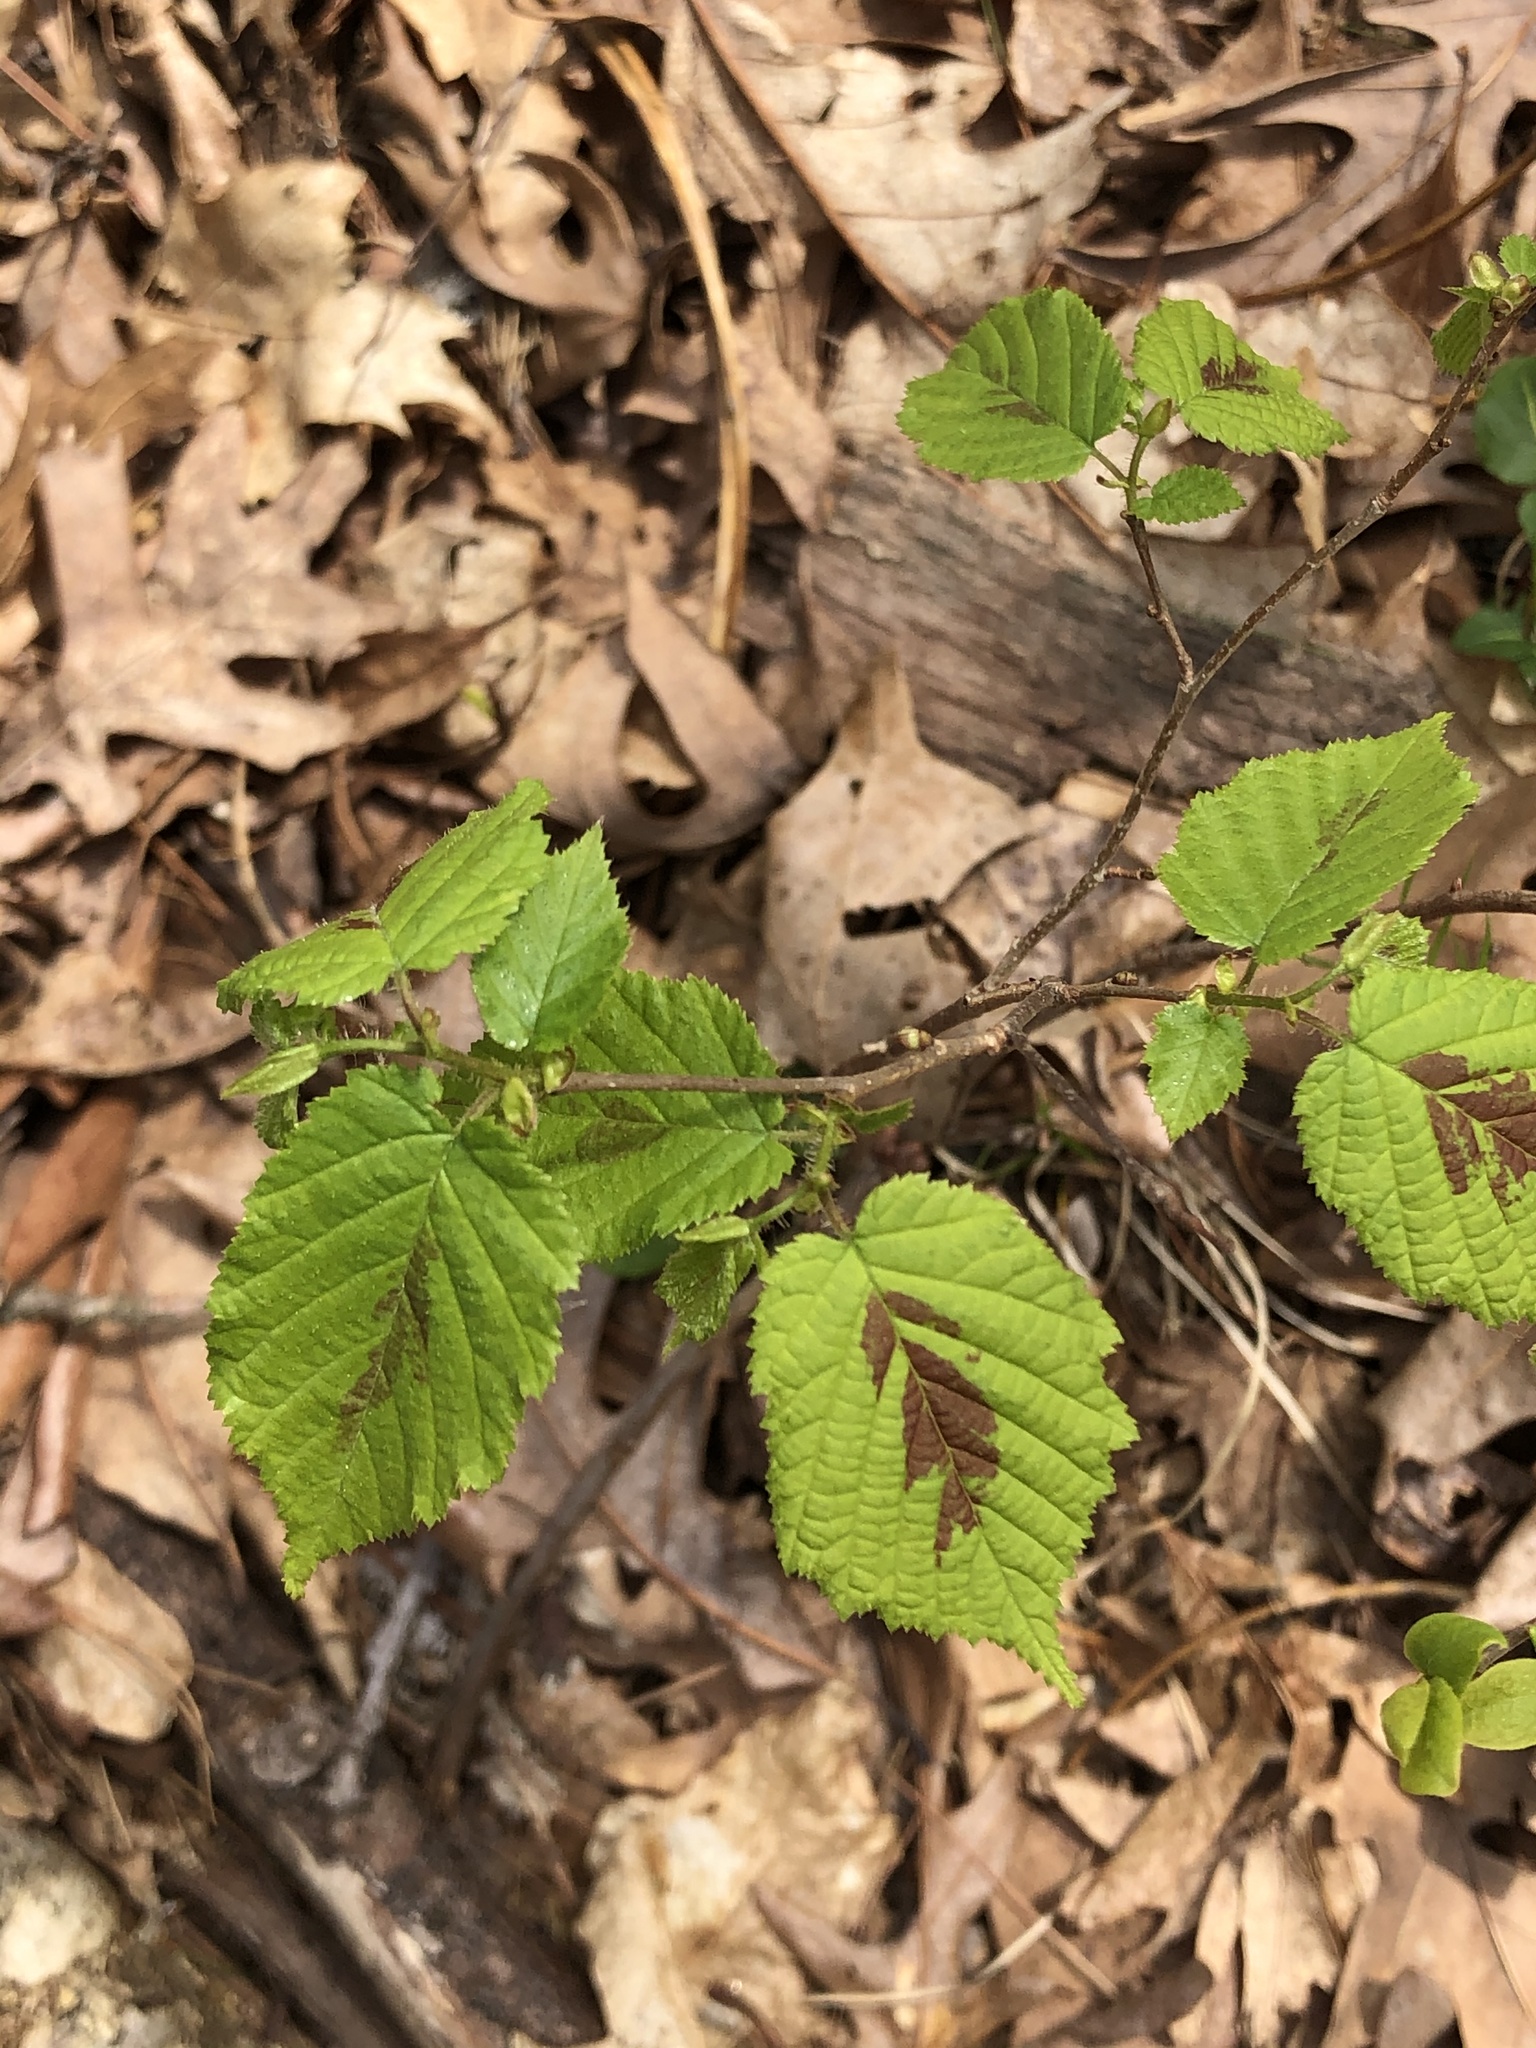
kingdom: Plantae
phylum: Tracheophyta
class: Magnoliopsida
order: Fagales
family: Betulaceae
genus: Corylus
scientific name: Corylus americana
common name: American hazel
